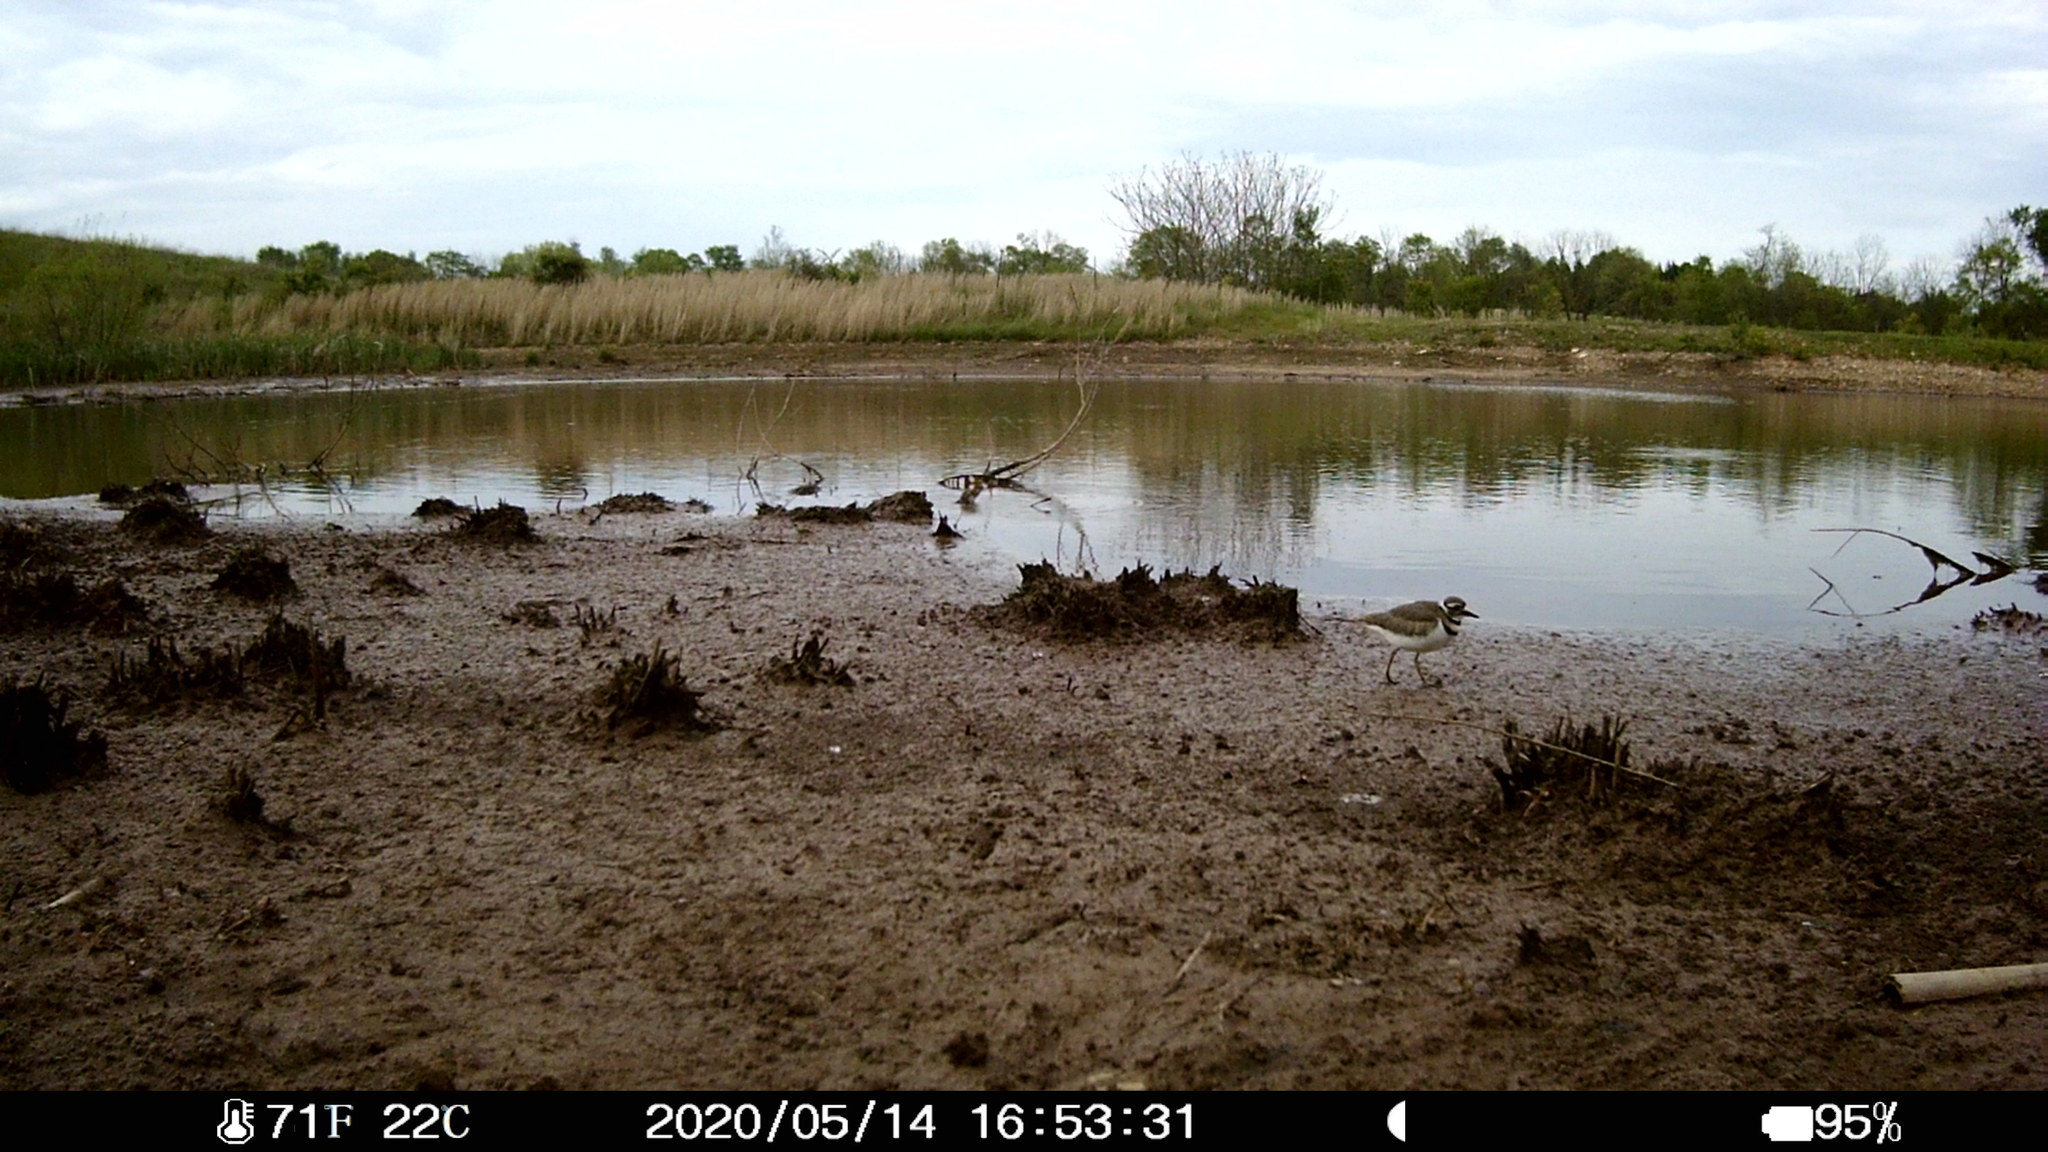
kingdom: Animalia
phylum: Chordata
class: Aves
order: Charadriiformes
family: Charadriidae
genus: Charadrius
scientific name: Charadrius vociferus
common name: Killdeer
